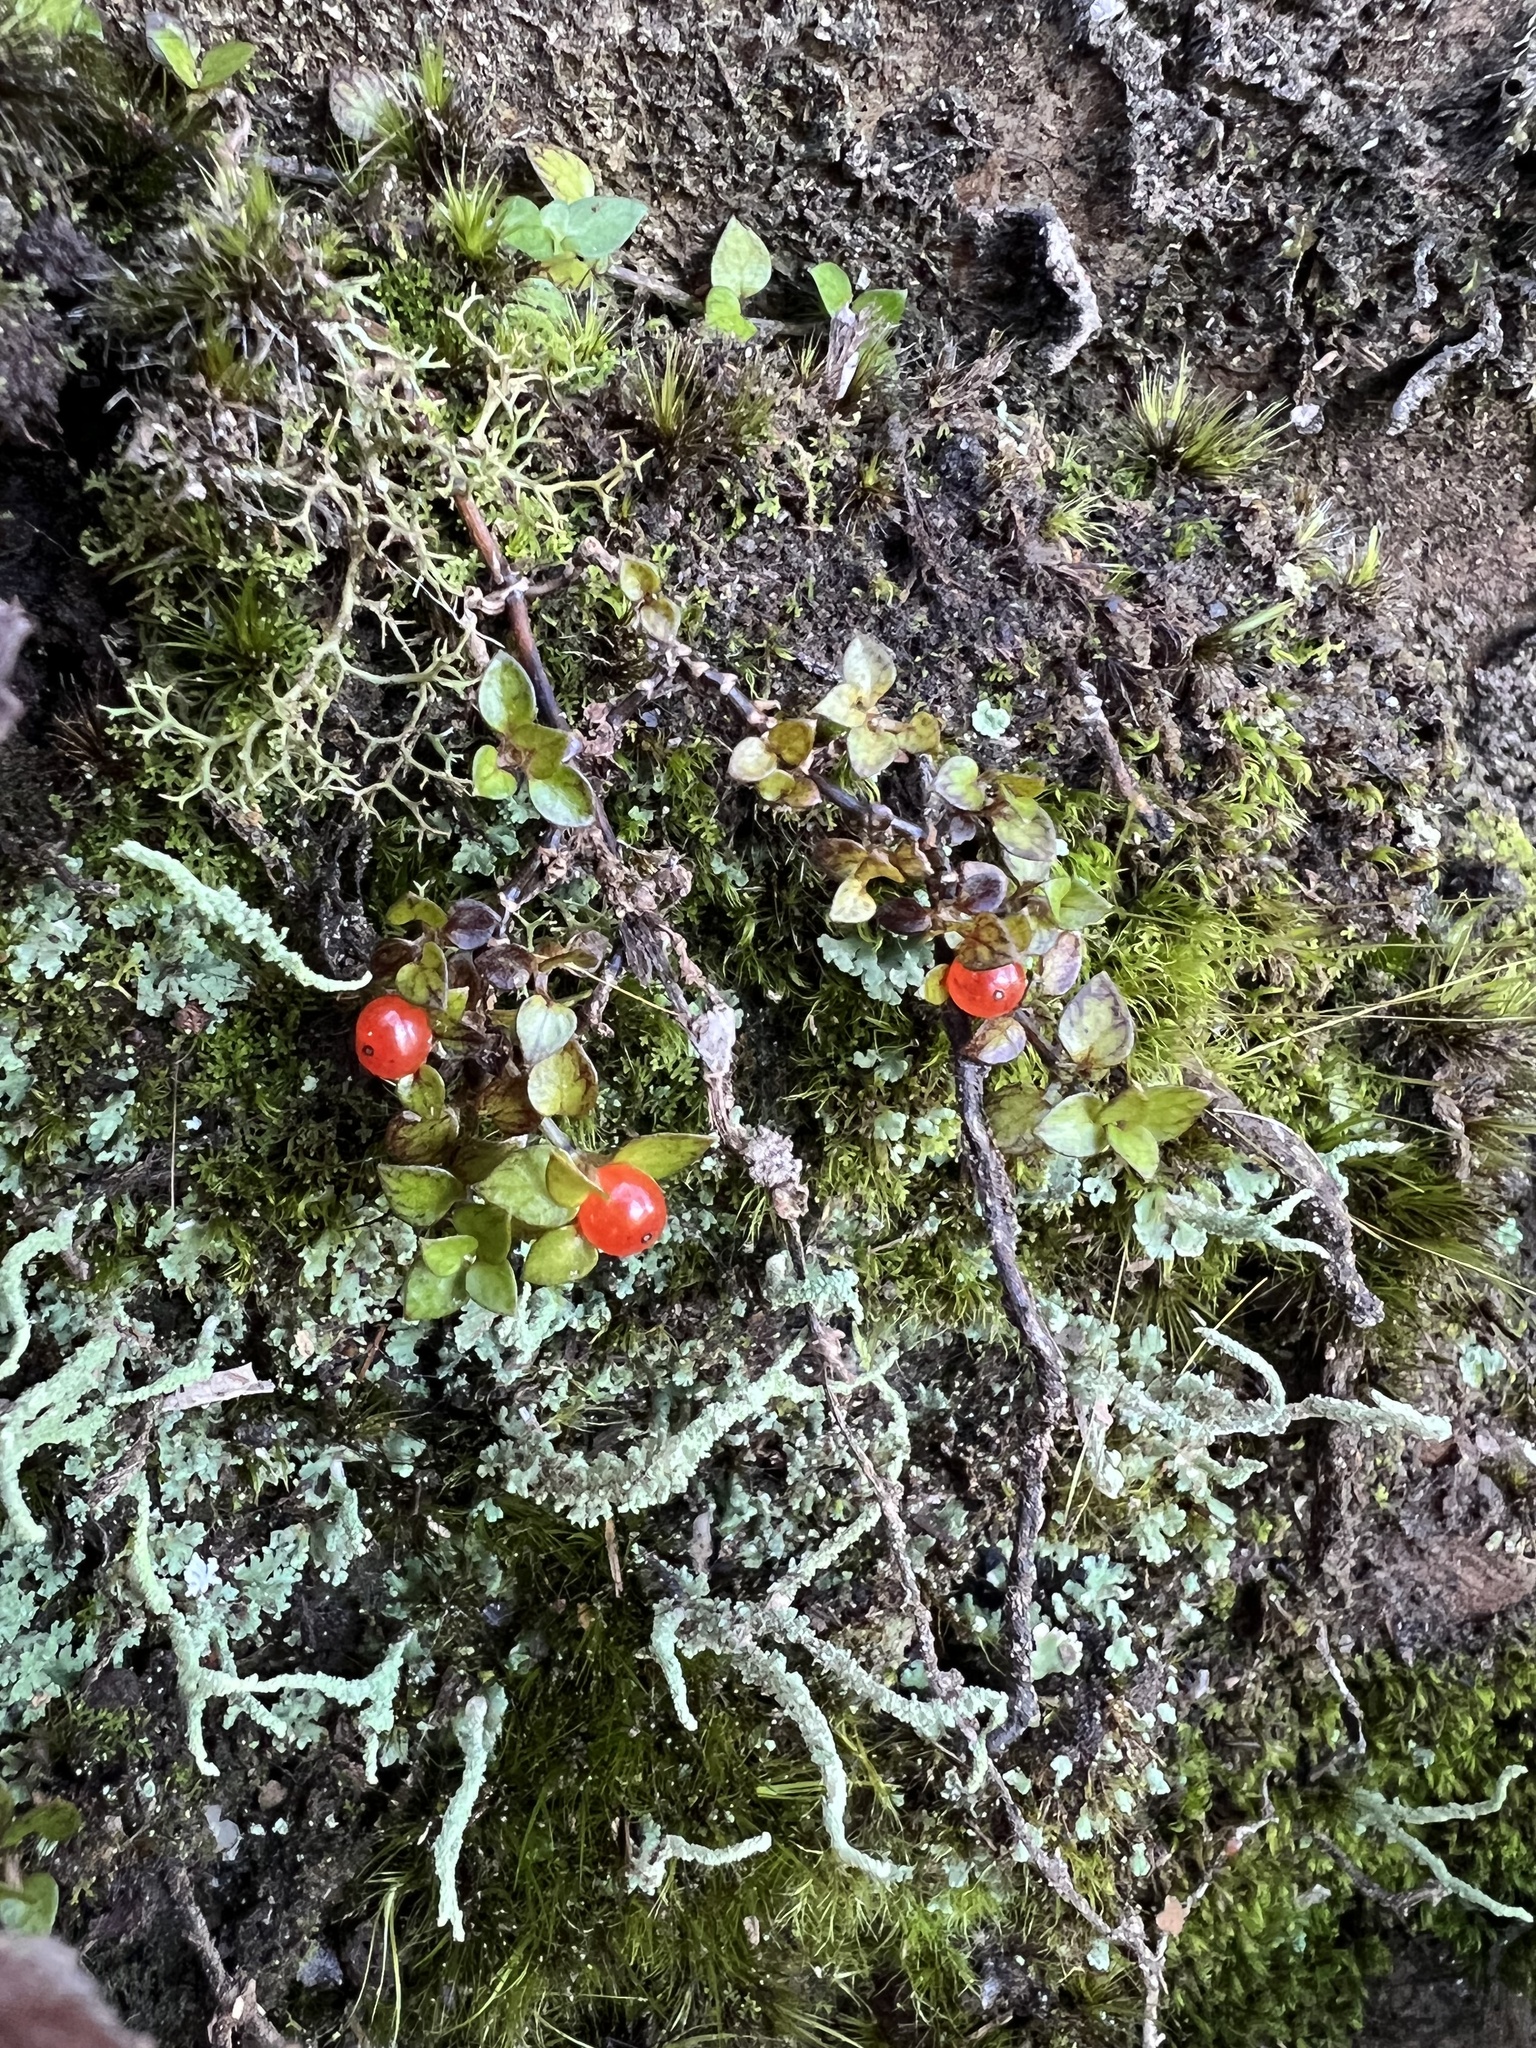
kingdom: Plantae
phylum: Tracheophyta
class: Magnoliopsida
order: Gentianales
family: Rubiaceae
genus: Nertera
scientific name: Nertera granadensis
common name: Beadplant
